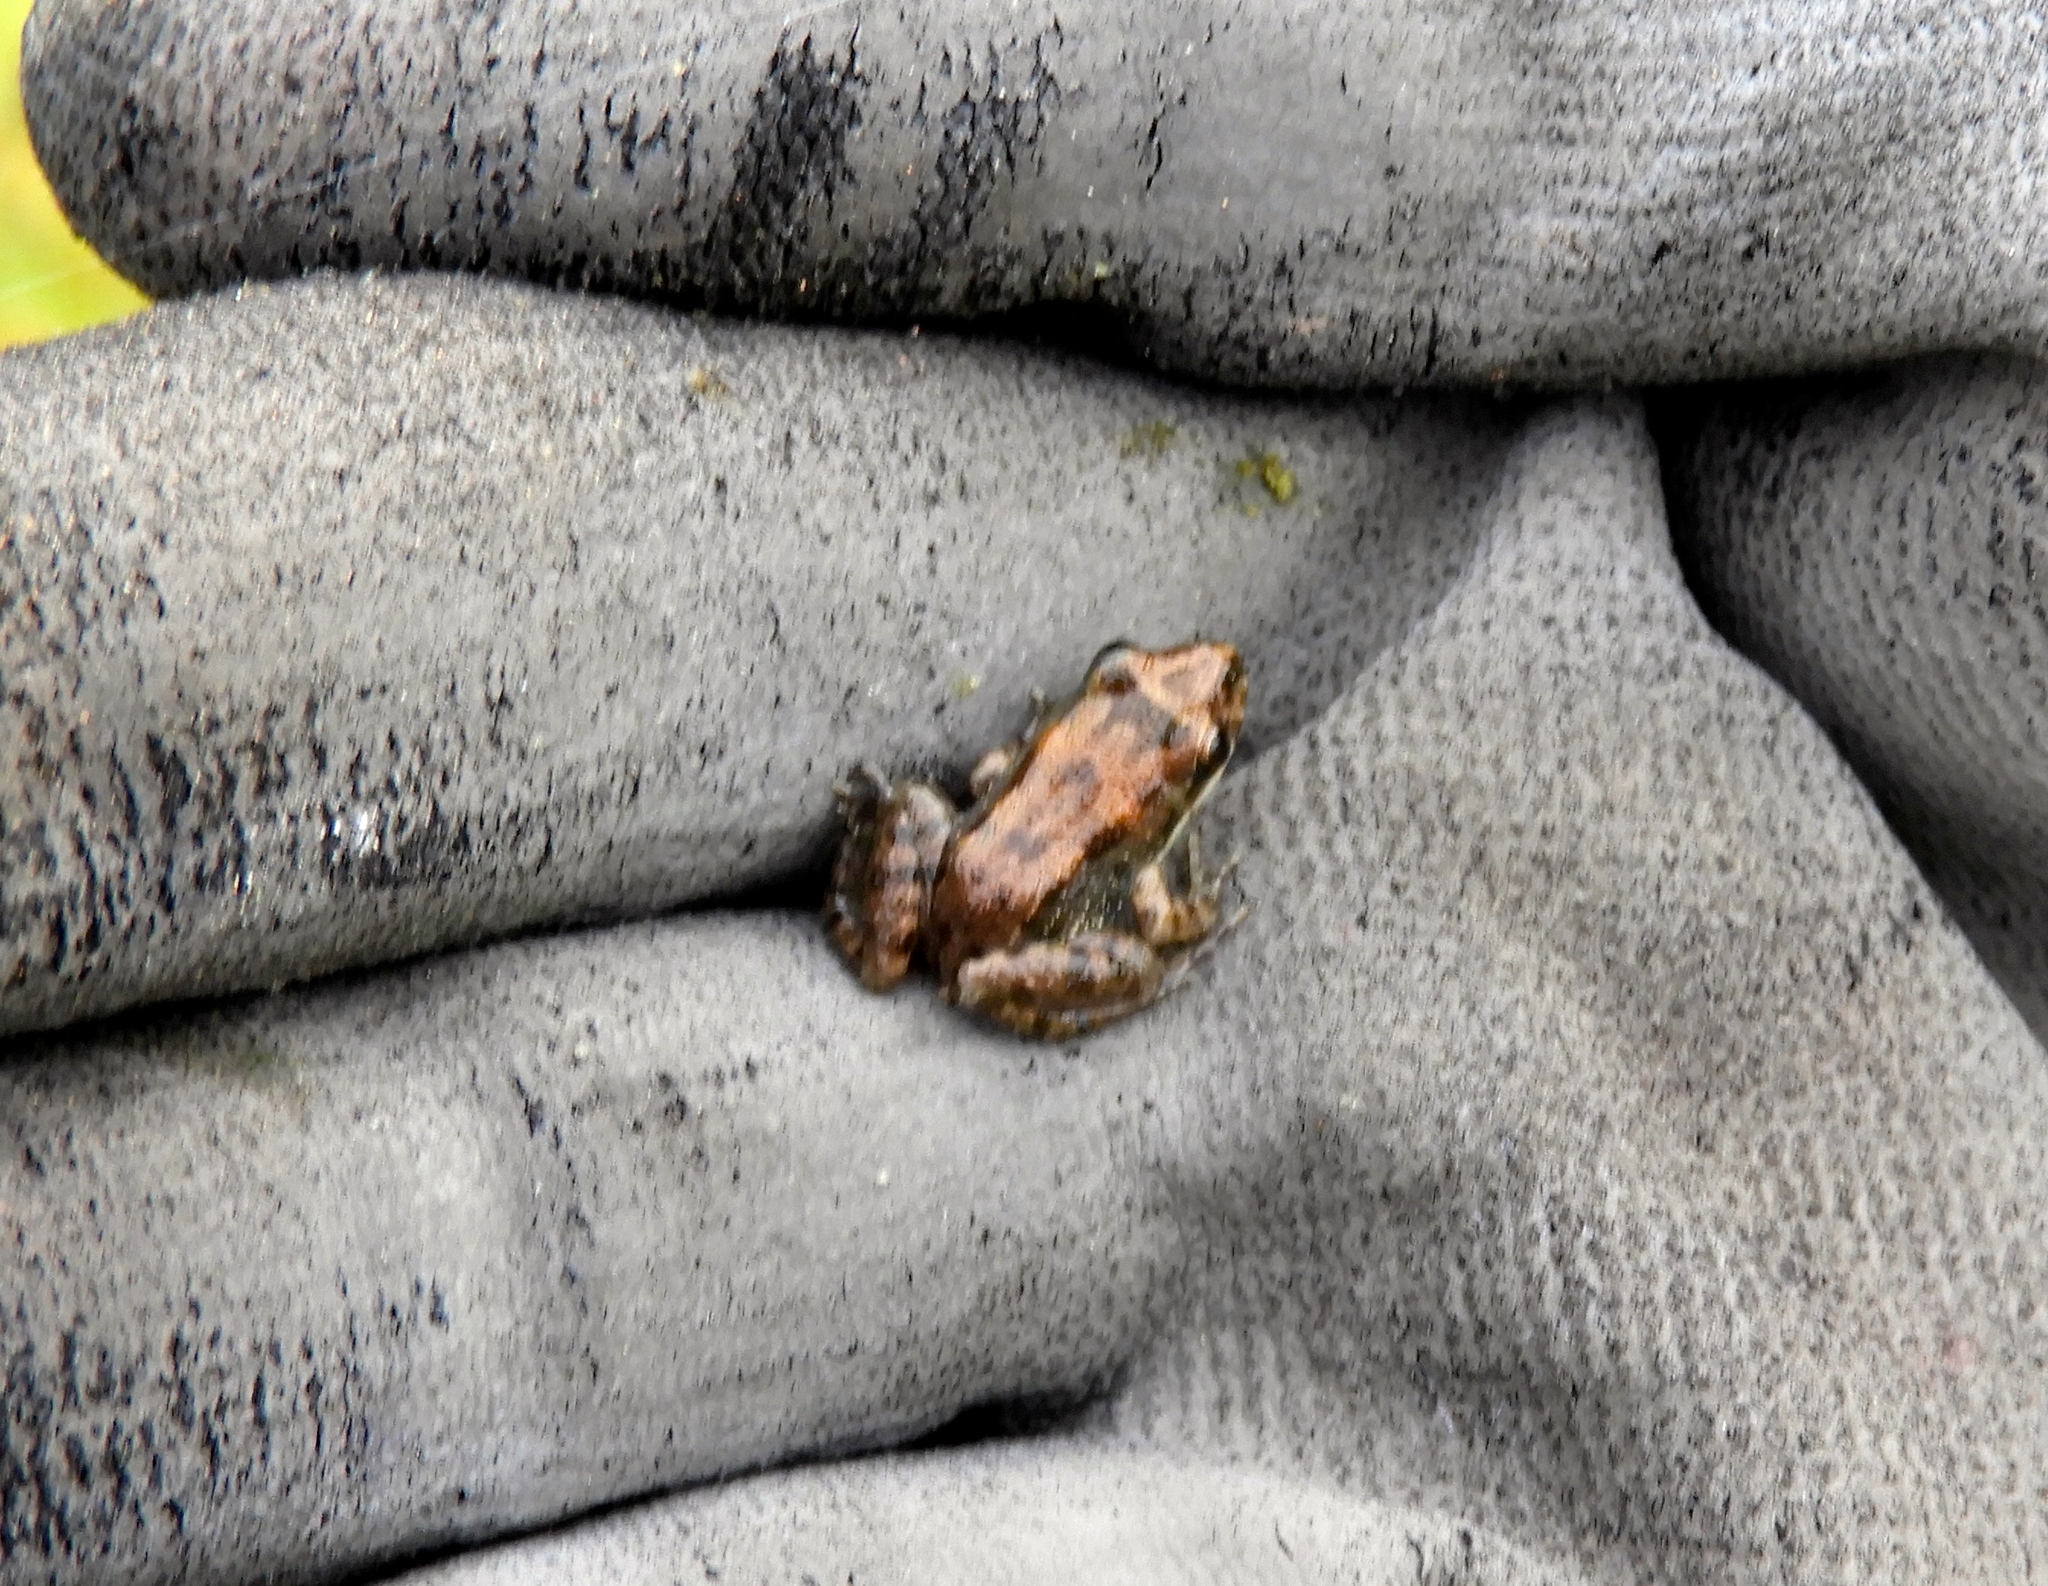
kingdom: Animalia
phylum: Chordata
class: Amphibia
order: Anura
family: Leptodactylidae
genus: Leptodactylus
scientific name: Leptodactylus melanonotus
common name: Fringe-toed foamfrog
